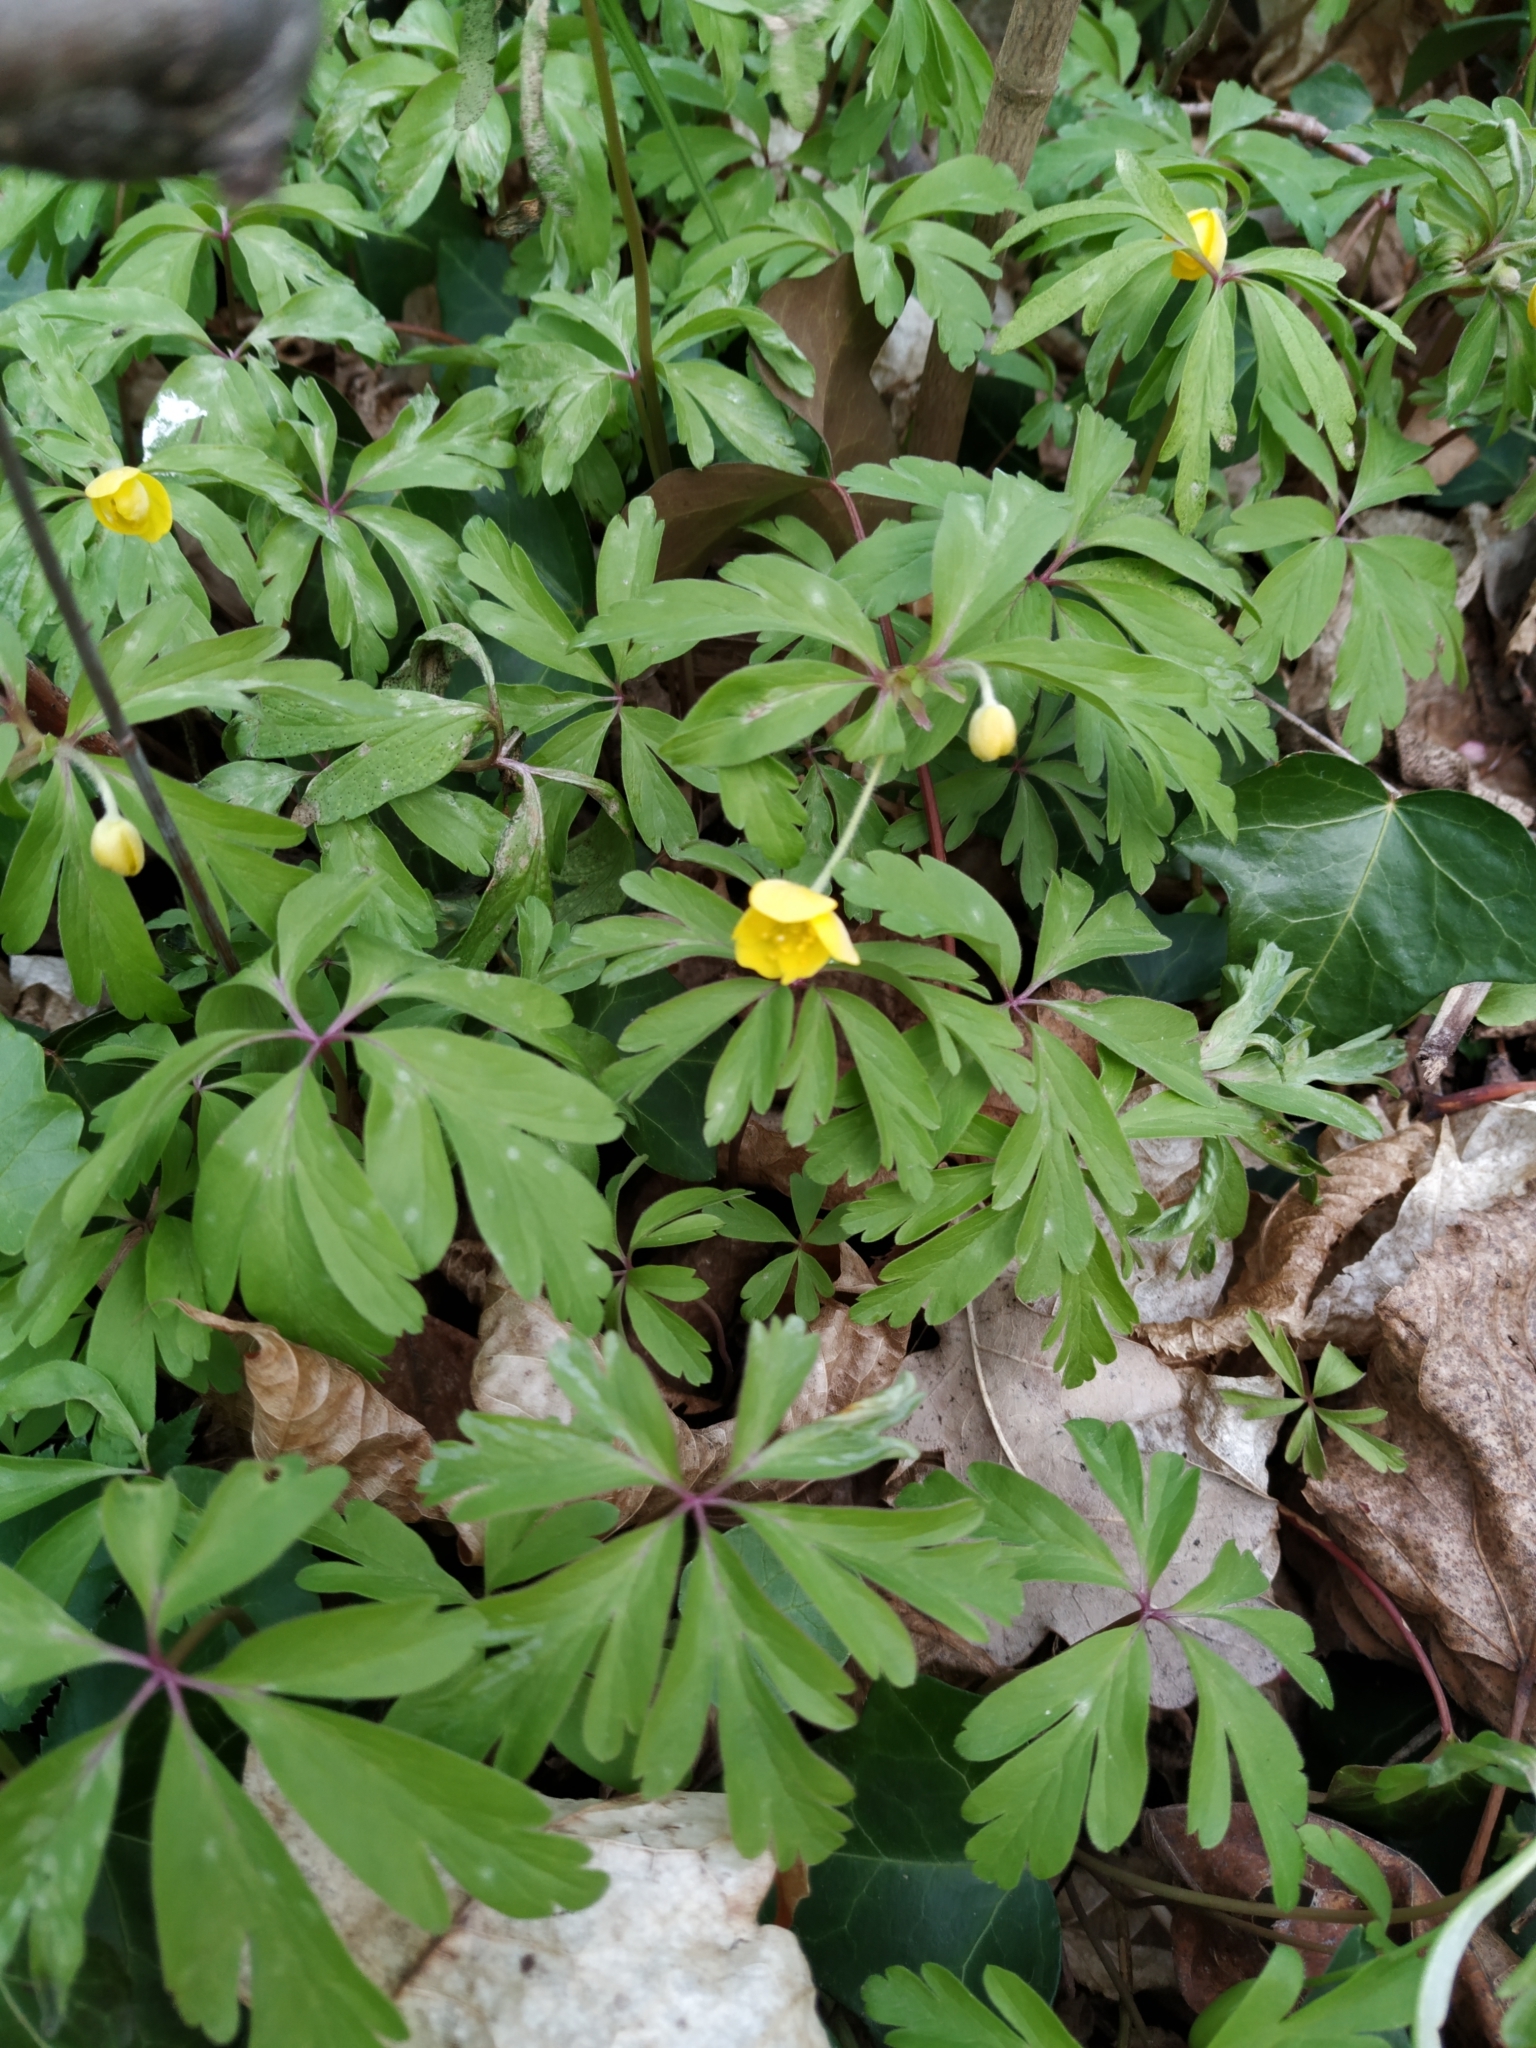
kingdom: Plantae
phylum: Tracheophyta
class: Magnoliopsida
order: Ranunculales
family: Ranunculaceae
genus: Anemone
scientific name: Anemone ranunculoides
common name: Yellow anemone
